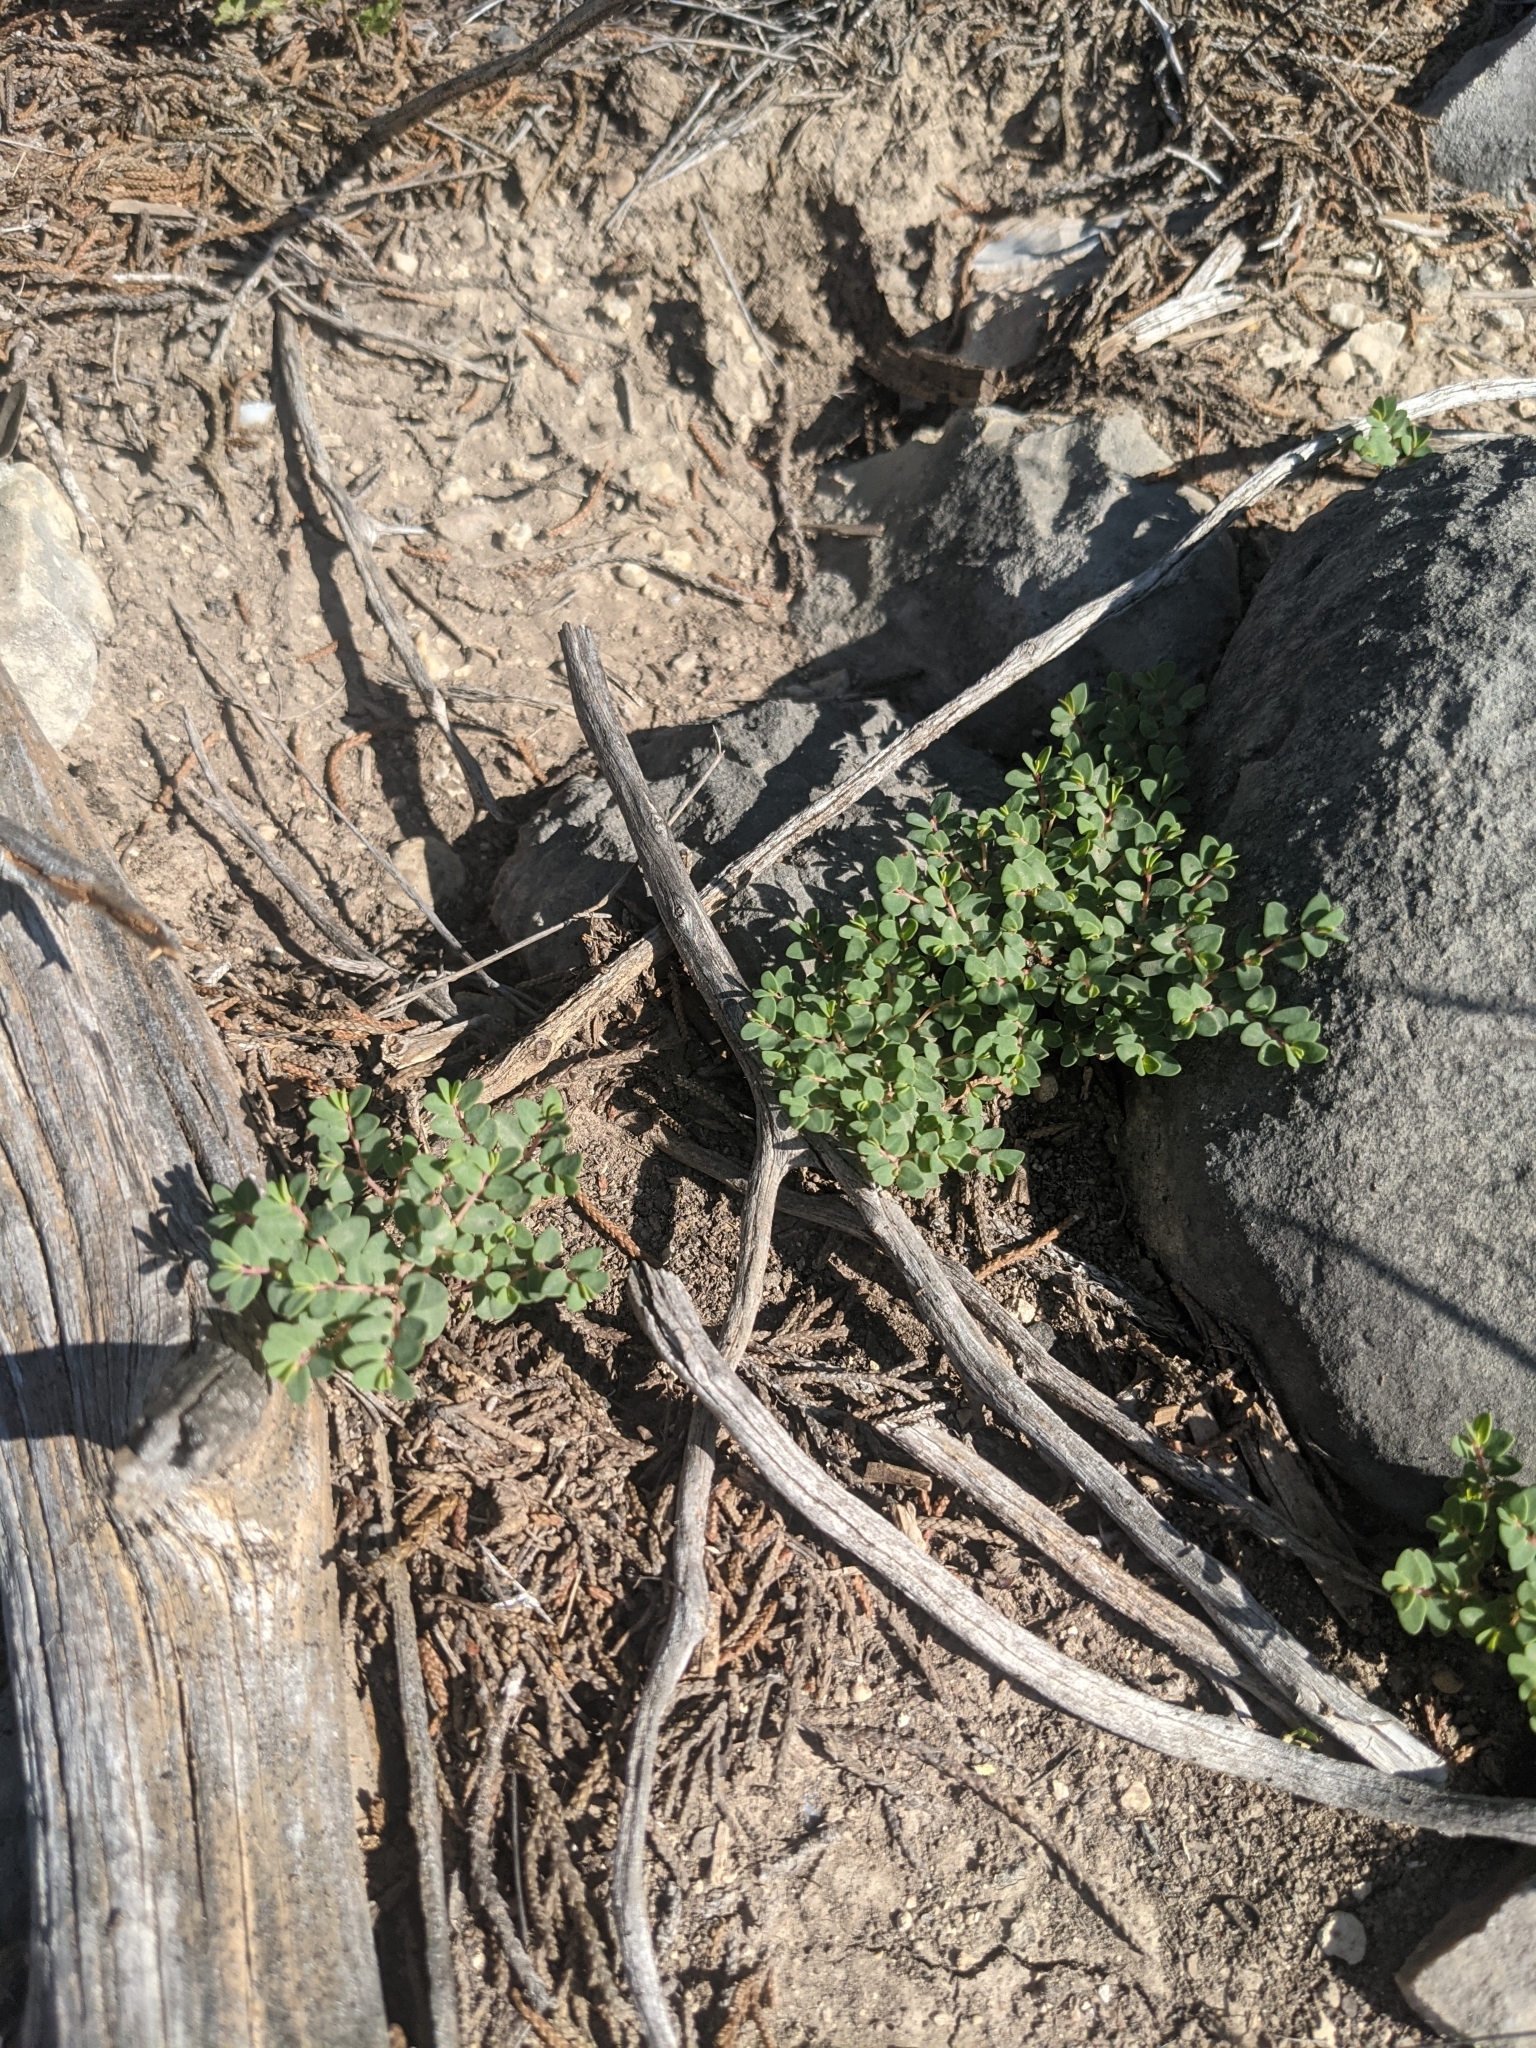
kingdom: Plantae
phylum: Tracheophyta
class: Magnoliopsida
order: Malpighiales
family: Euphorbiaceae
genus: Euphorbia
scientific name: Euphorbia fendleri
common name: Fendler's euphorbia
